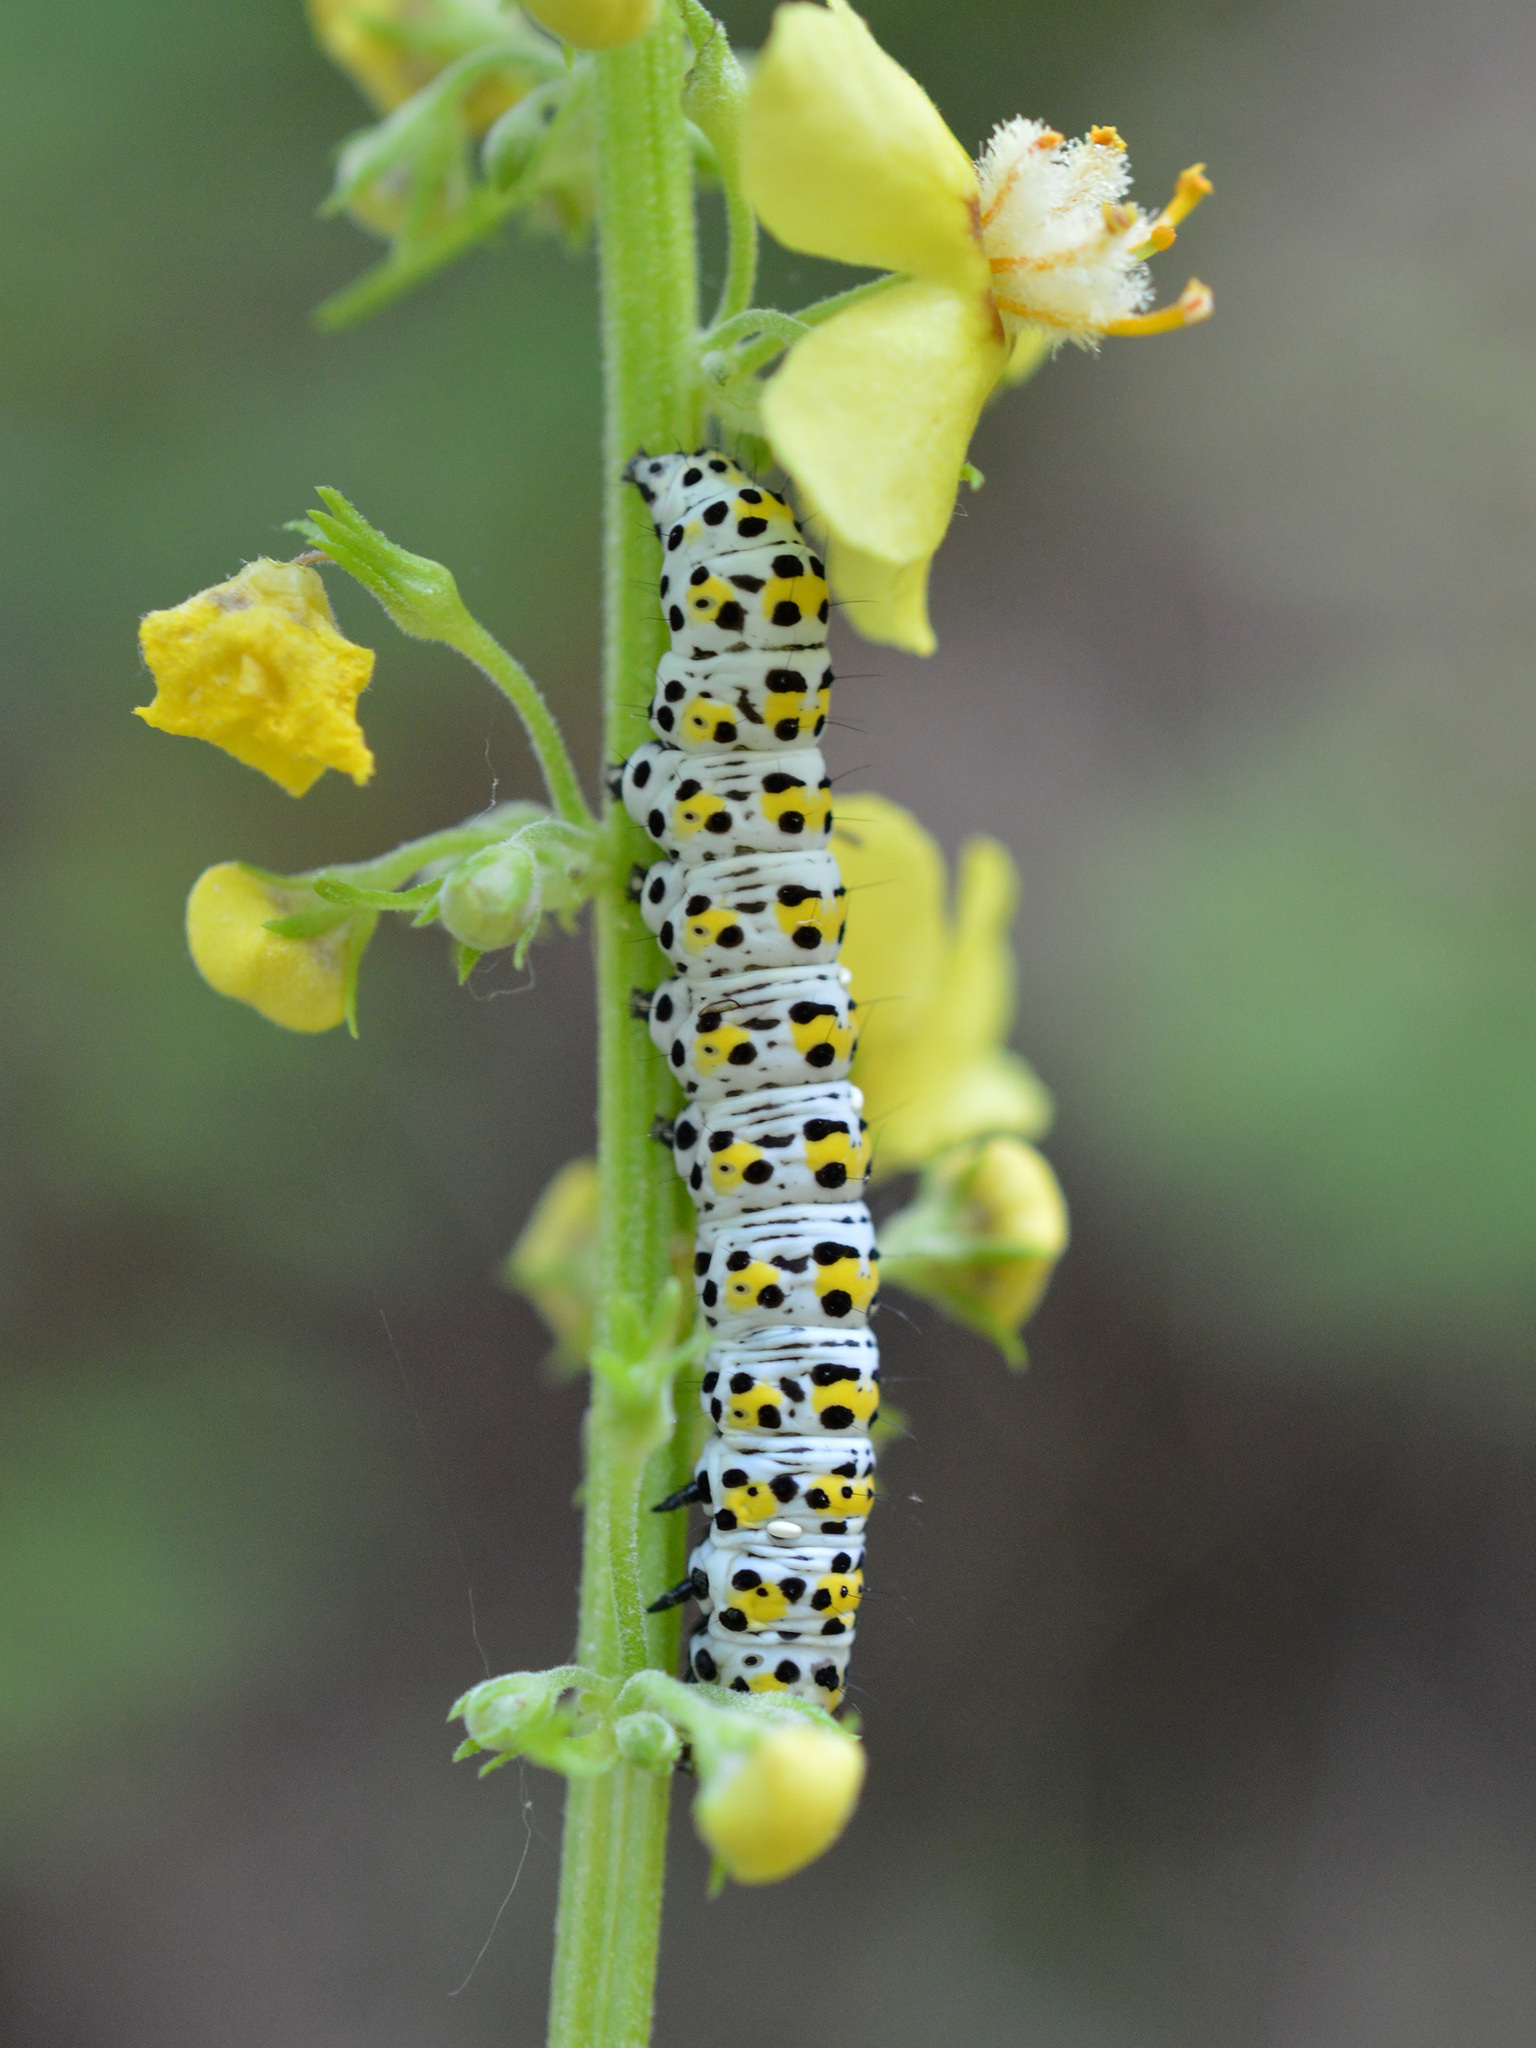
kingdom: Animalia
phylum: Arthropoda
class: Insecta
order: Lepidoptera
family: Noctuidae
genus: Cucullia
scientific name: Cucullia verbasci
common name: Mullein
